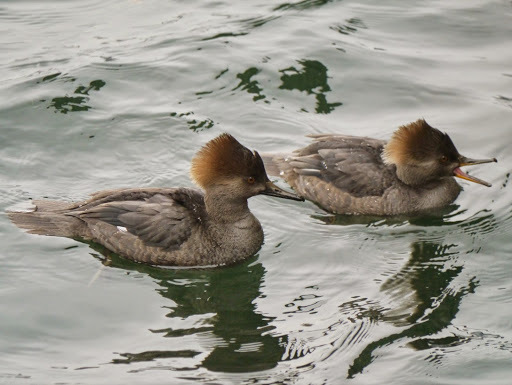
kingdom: Animalia
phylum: Chordata
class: Aves
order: Anseriformes
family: Anatidae
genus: Lophodytes
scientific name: Lophodytes cucullatus
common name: Hooded merganser
